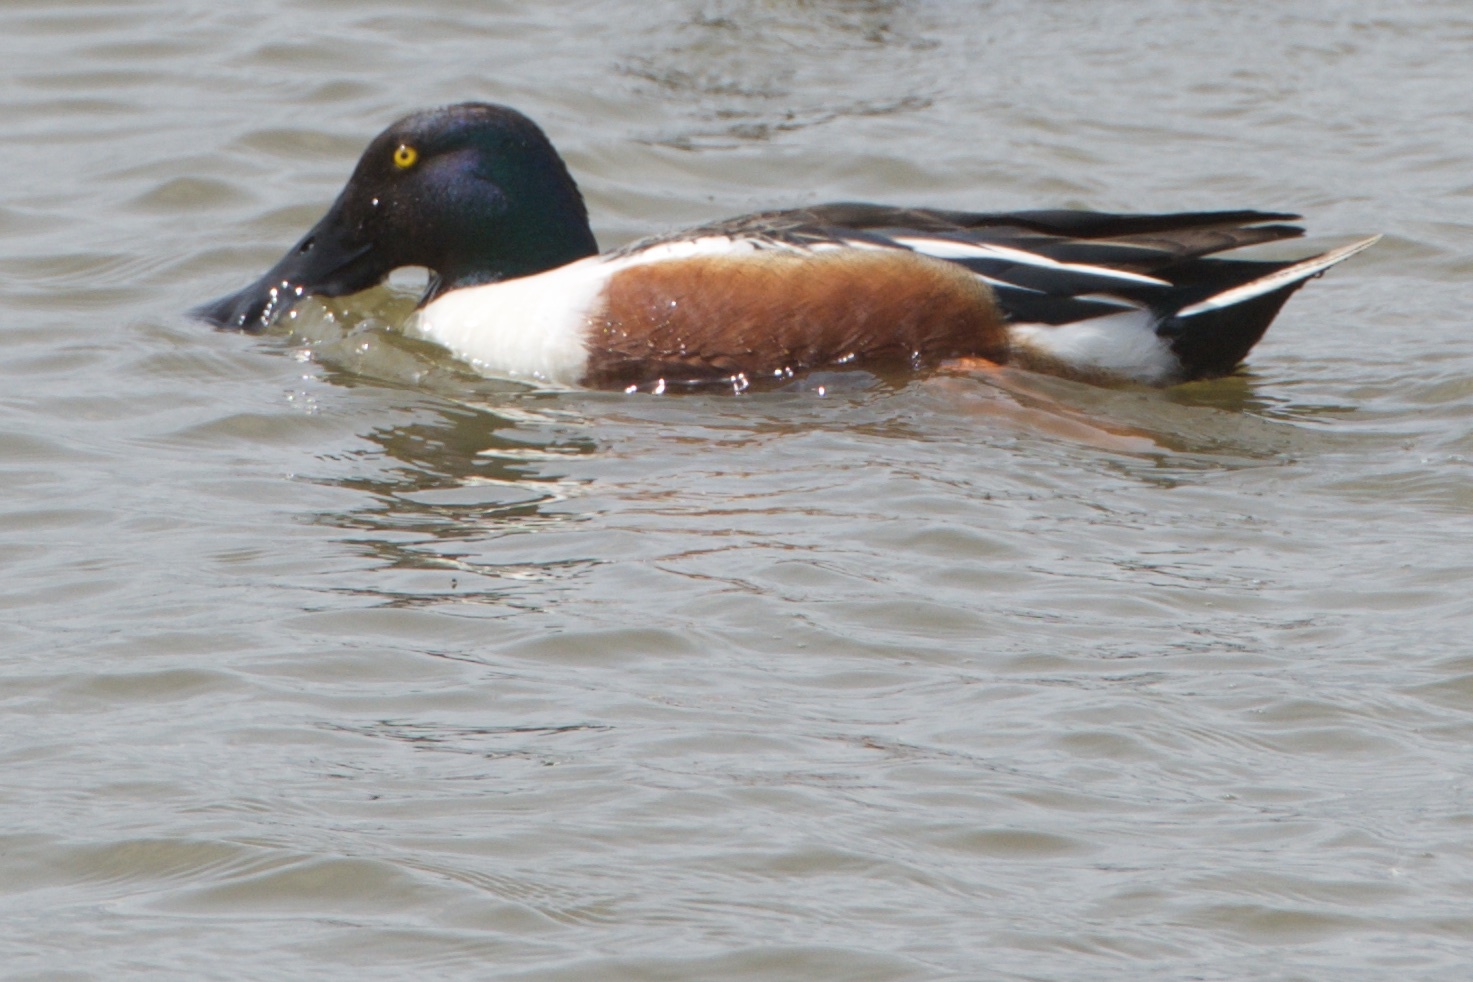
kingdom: Animalia
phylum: Chordata
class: Aves
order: Anseriformes
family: Anatidae
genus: Spatula
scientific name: Spatula clypeata
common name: Northern shoveler
